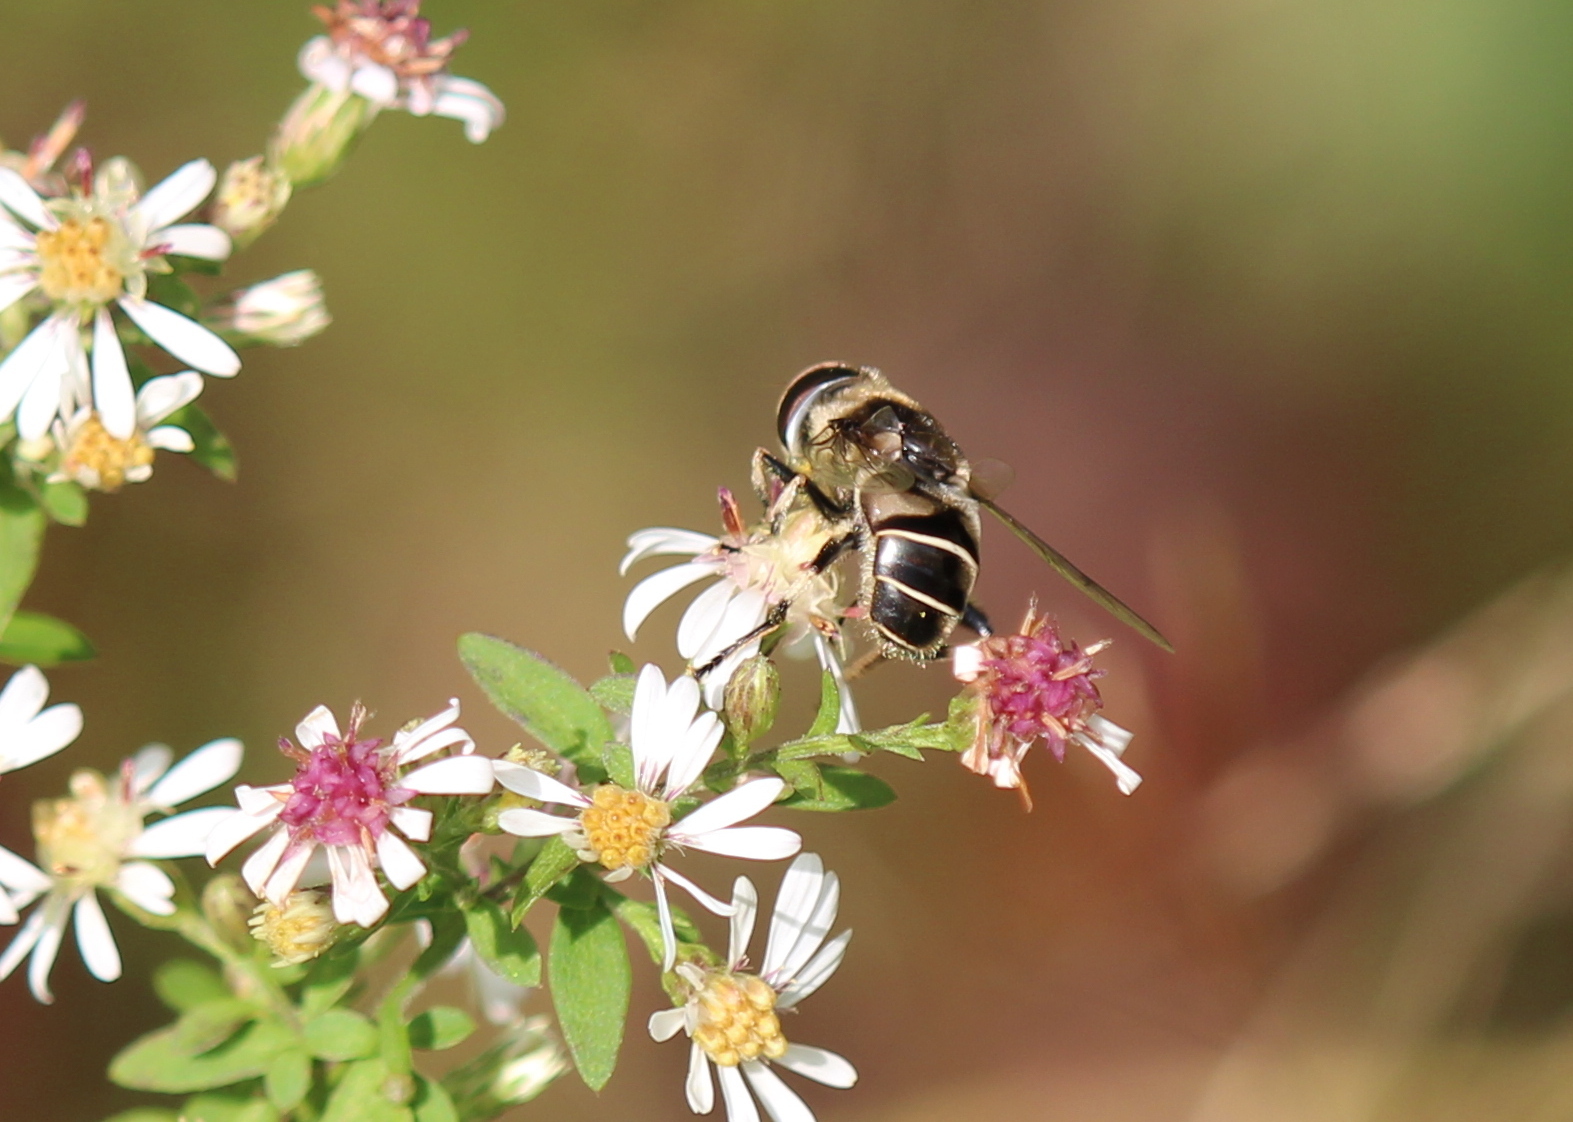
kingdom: Animalia
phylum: Arthropoda
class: Insecta
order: Diptera
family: Syrphidae
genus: Eristalis
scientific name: Eristalis dimidiata
